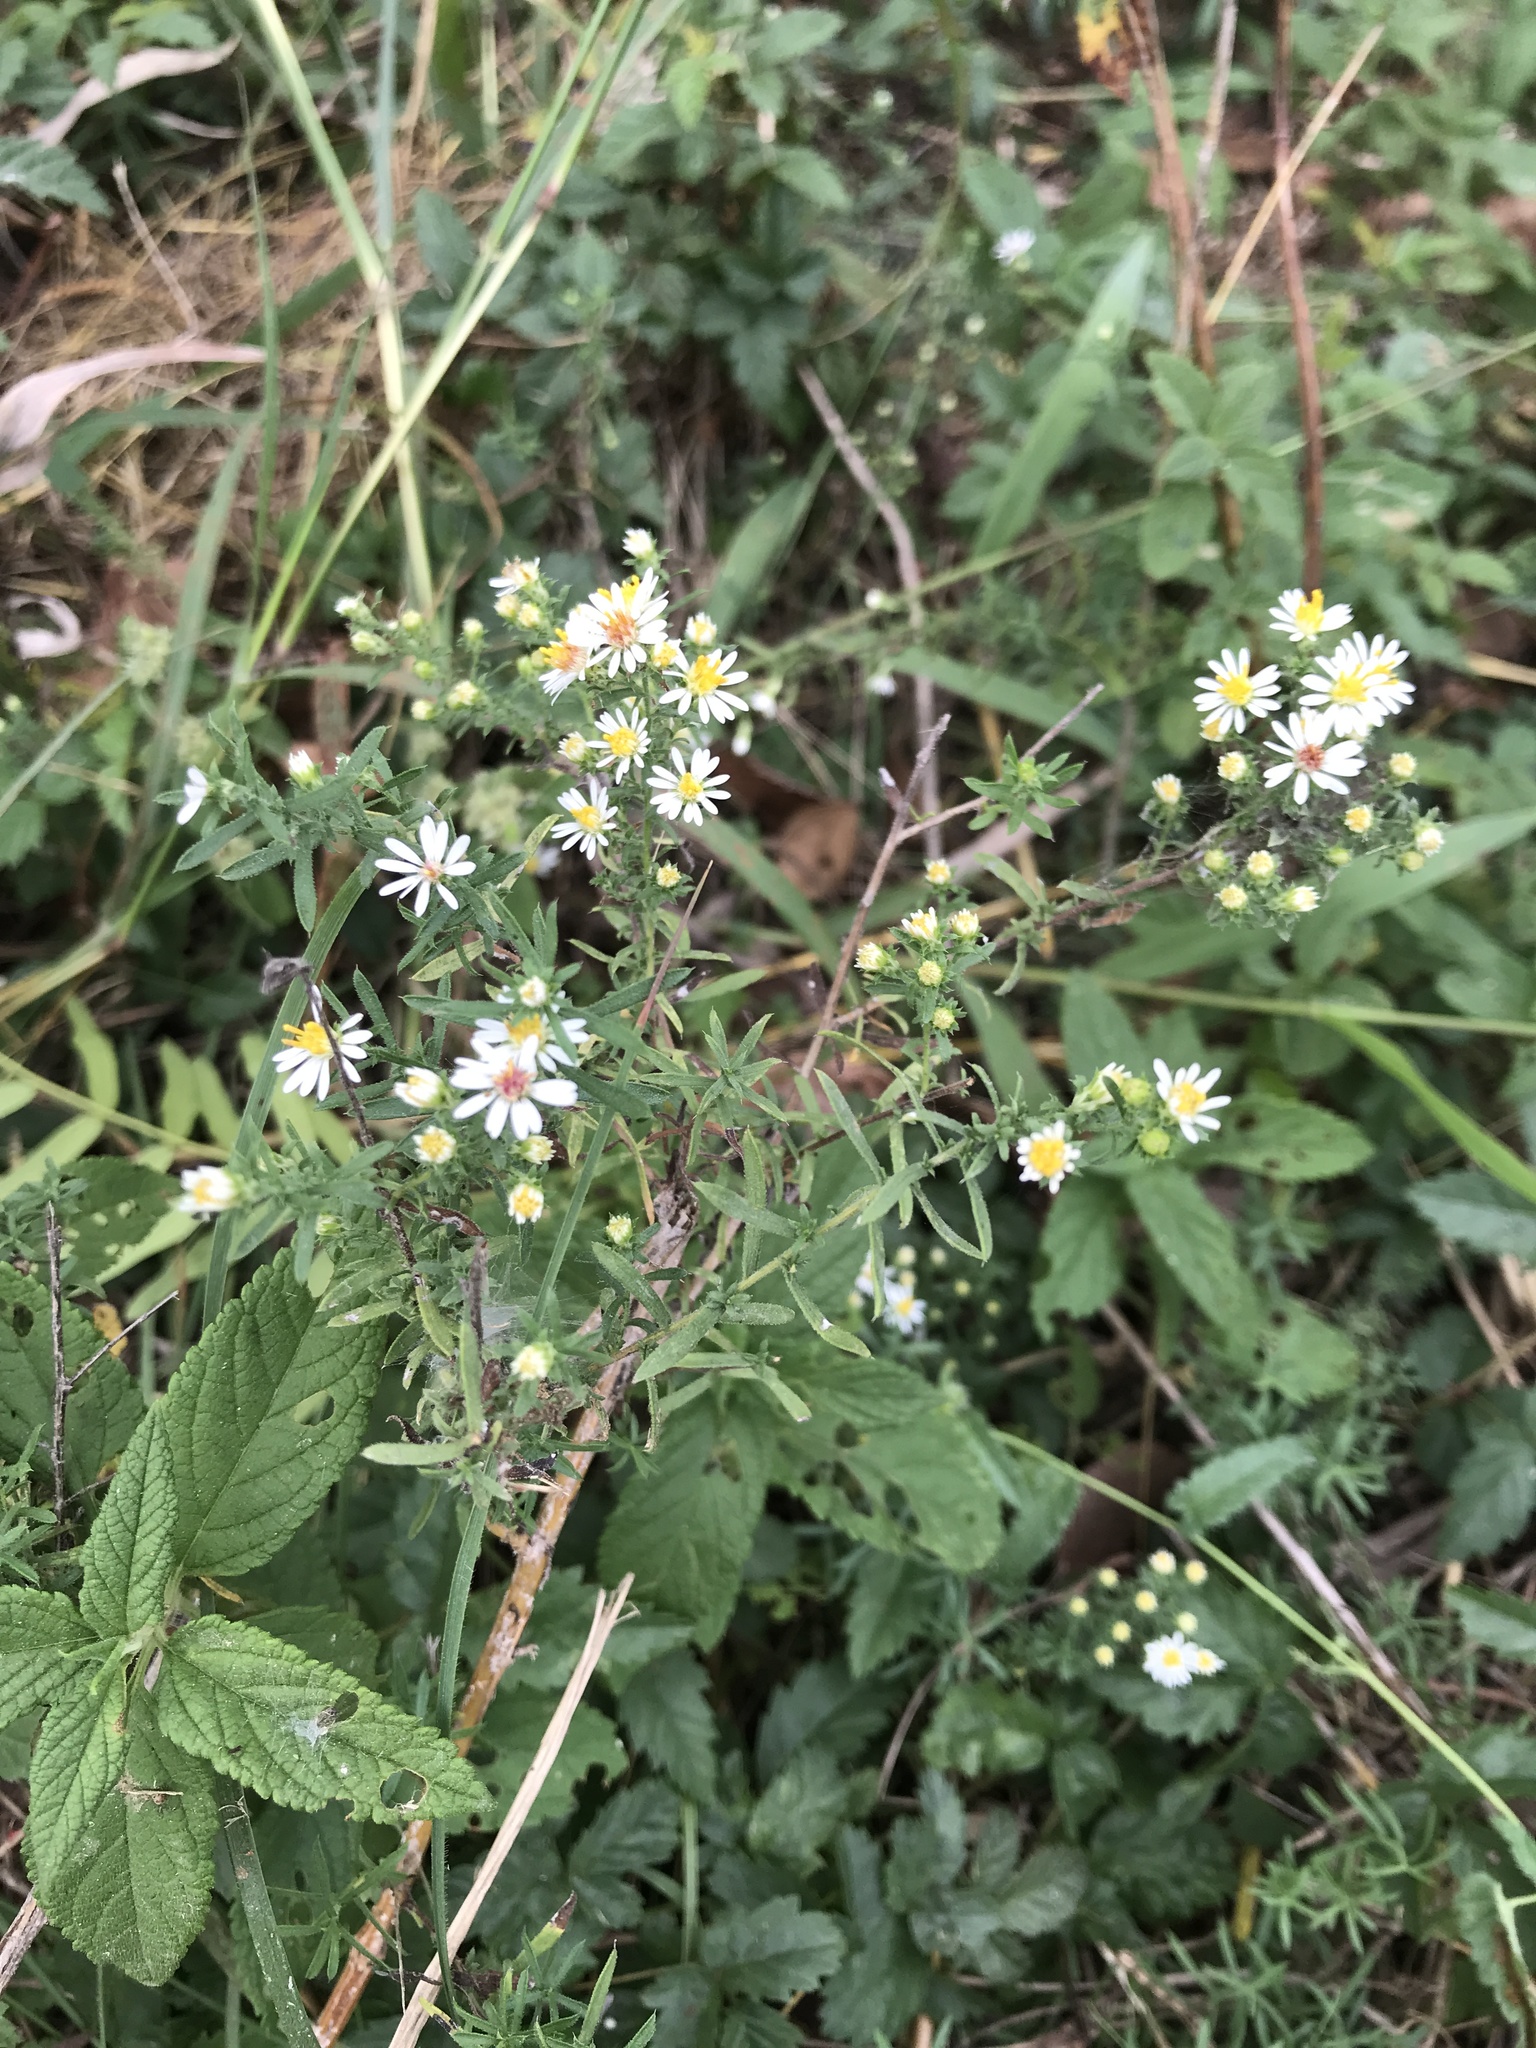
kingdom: Plantae
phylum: Tracheophyta
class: Magnoliopsida
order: Asterales
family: Asteraceae
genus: Symphyotrichum
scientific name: Symphyotrichum ericoides
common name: Heath aster
